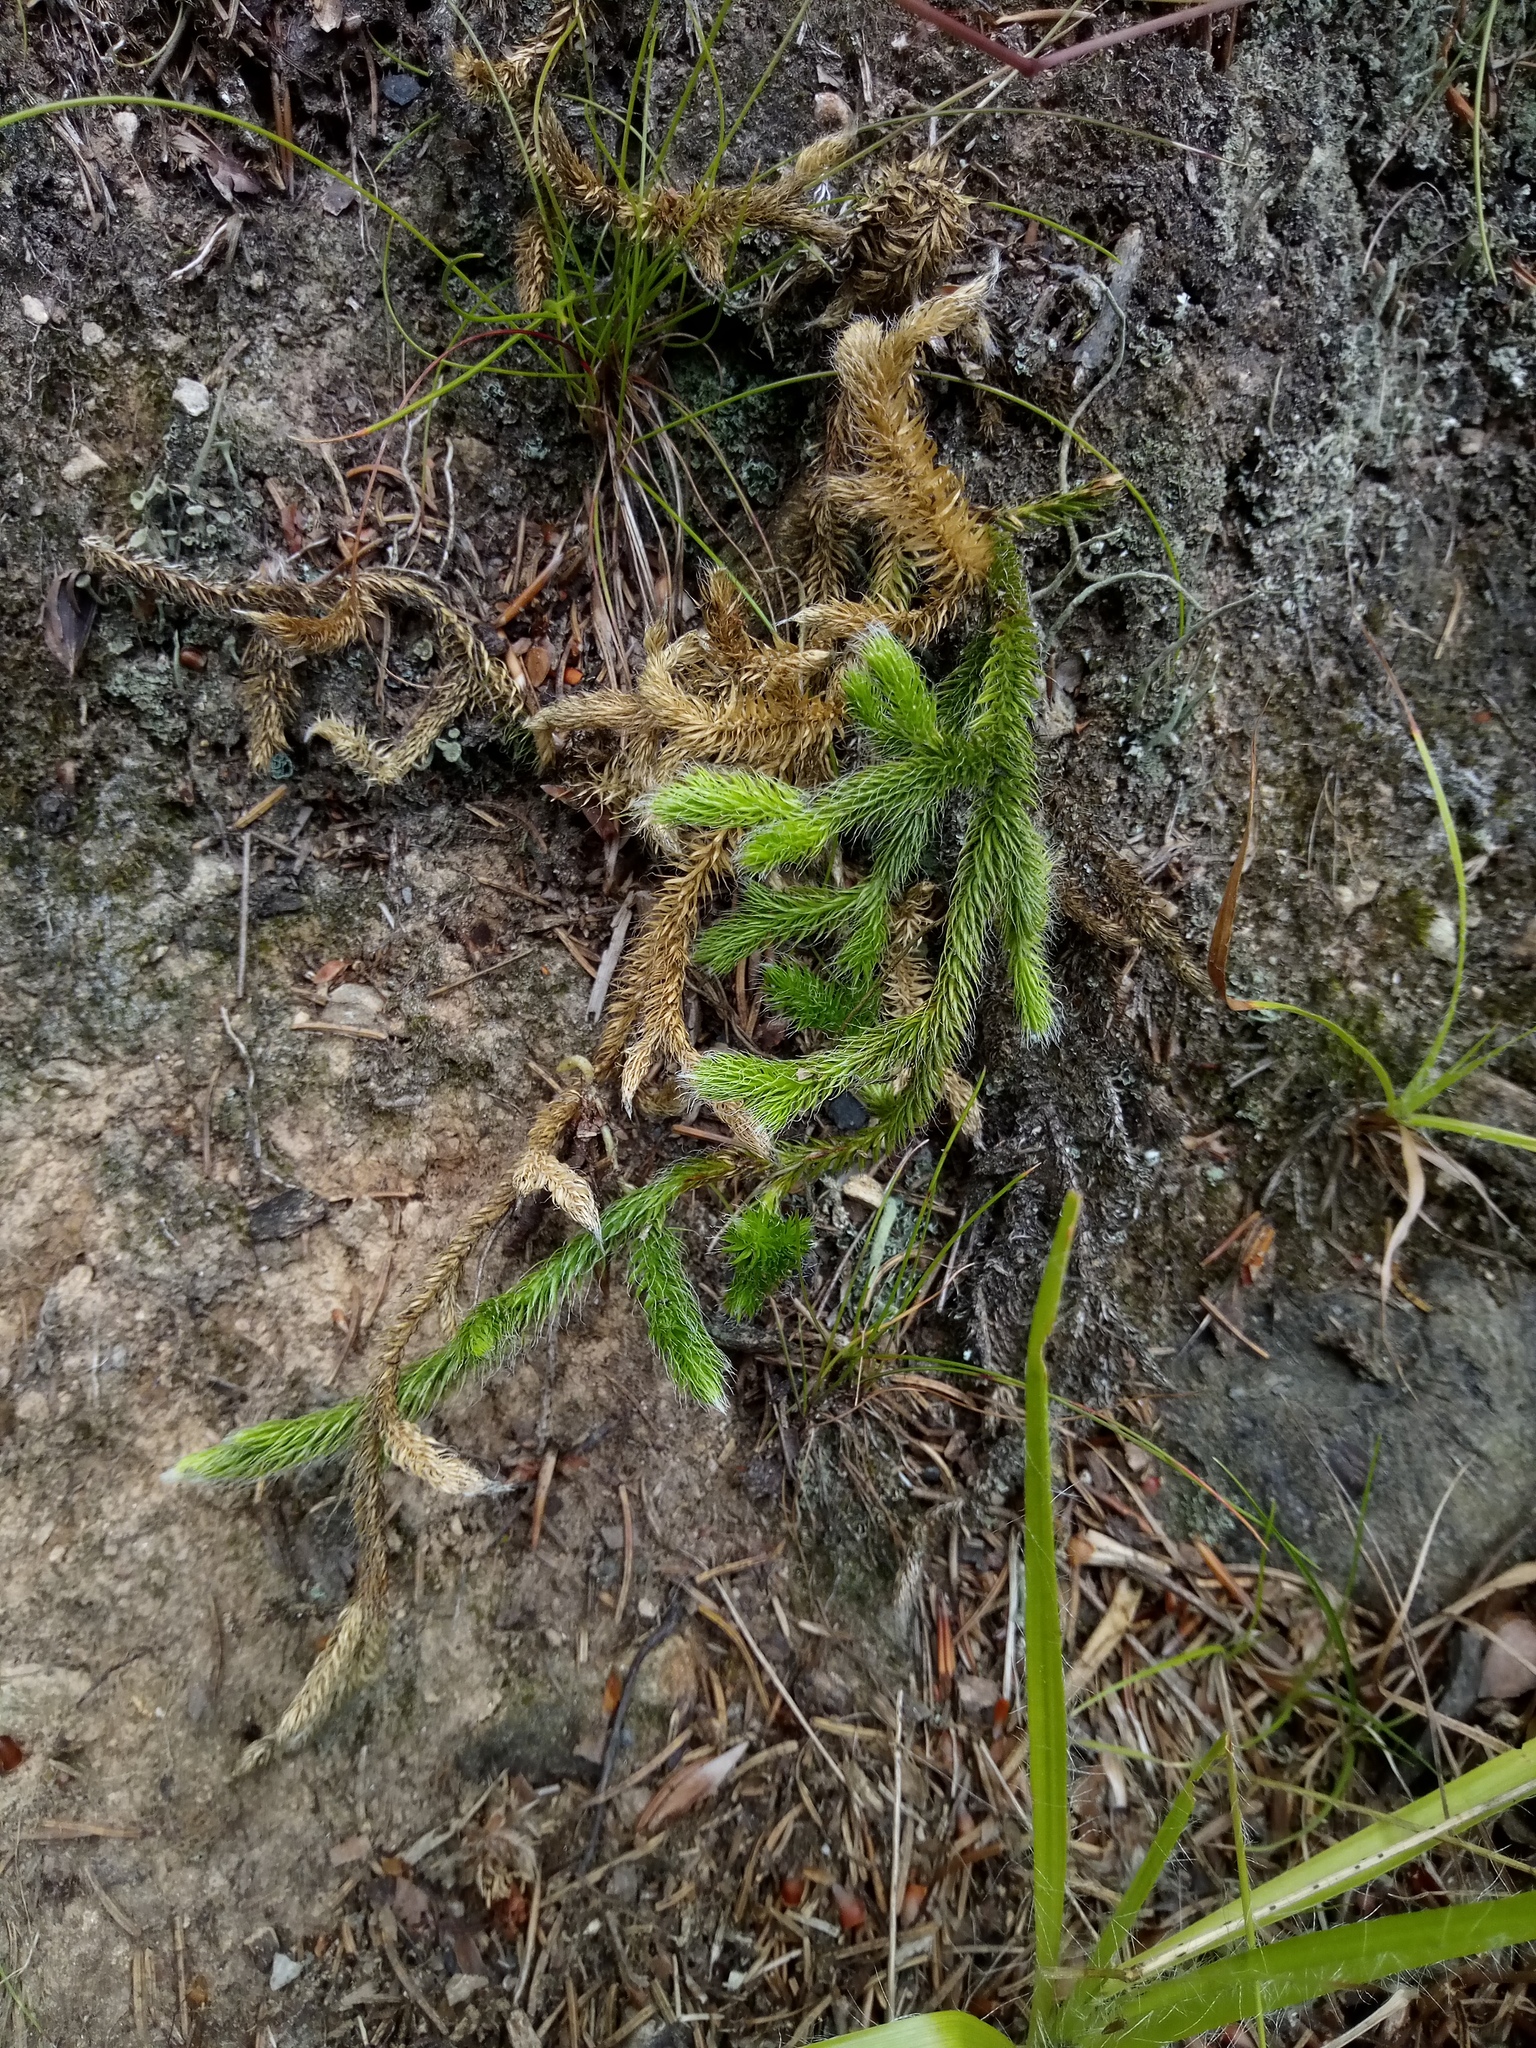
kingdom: Plantae
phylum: Tracheophyta
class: Lycopodiopsida
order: Lycopodiales
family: Lycopodiaceae
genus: Lycopodium
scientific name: Lycopodium clavatum
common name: Stag's-horn clubmoss
